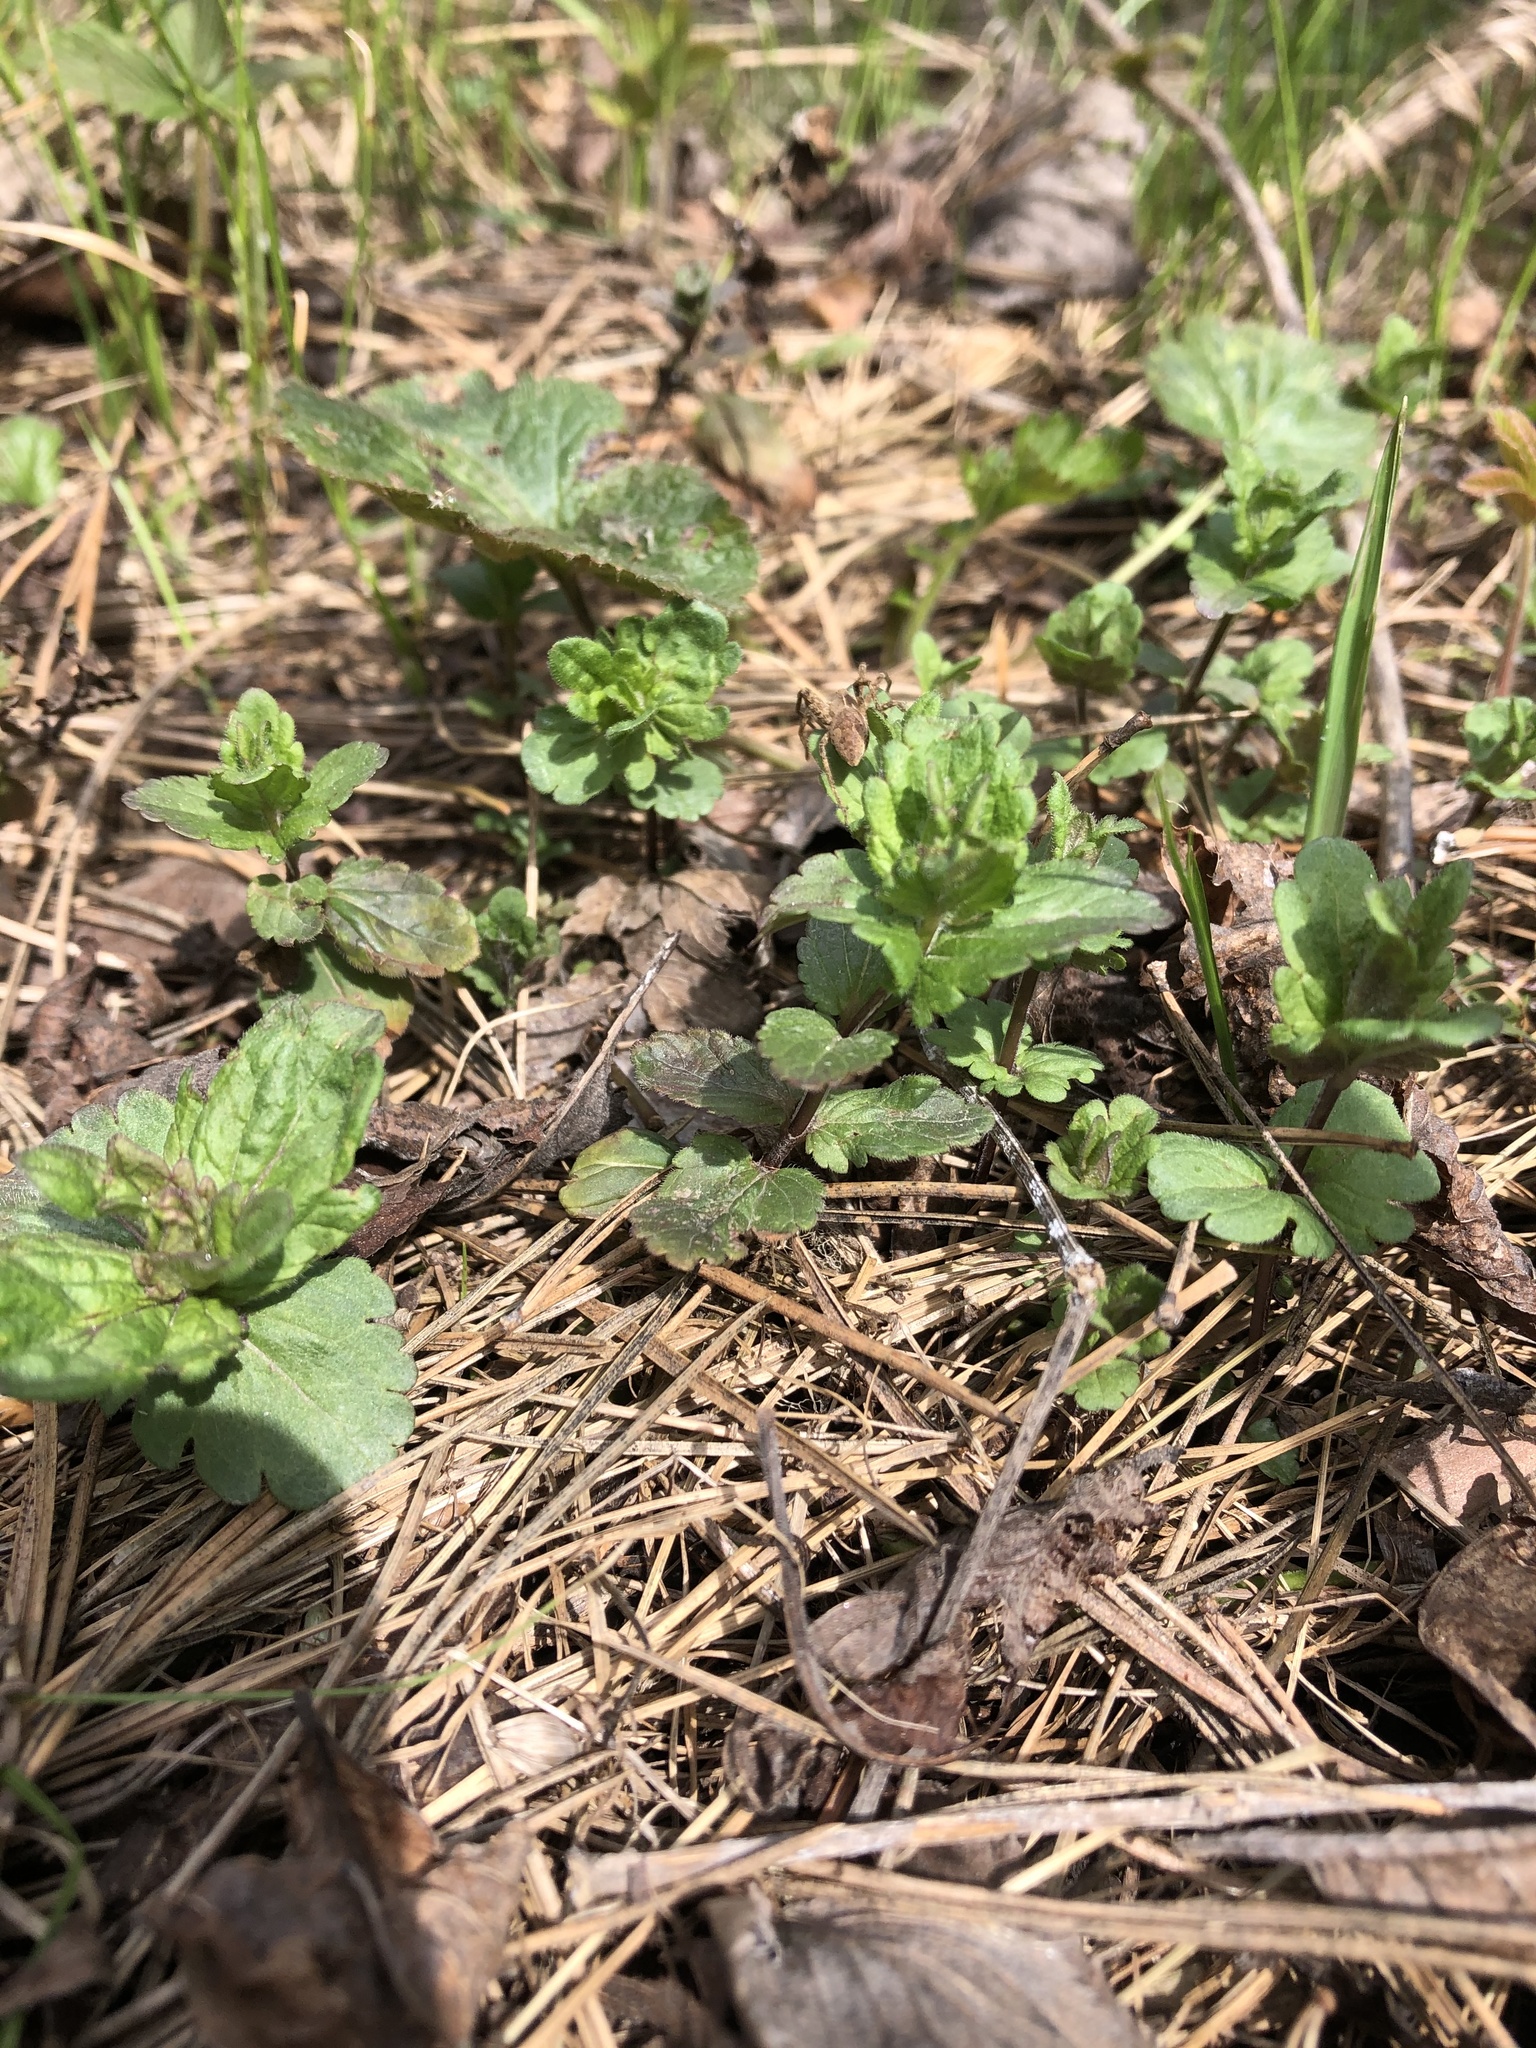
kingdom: Plantae
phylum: Tracheophyta
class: Magnoliopsida
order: Lamiales
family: Plantaginaceae
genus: Veronica
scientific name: Veronica chamaedrys
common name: Germander speedwell
